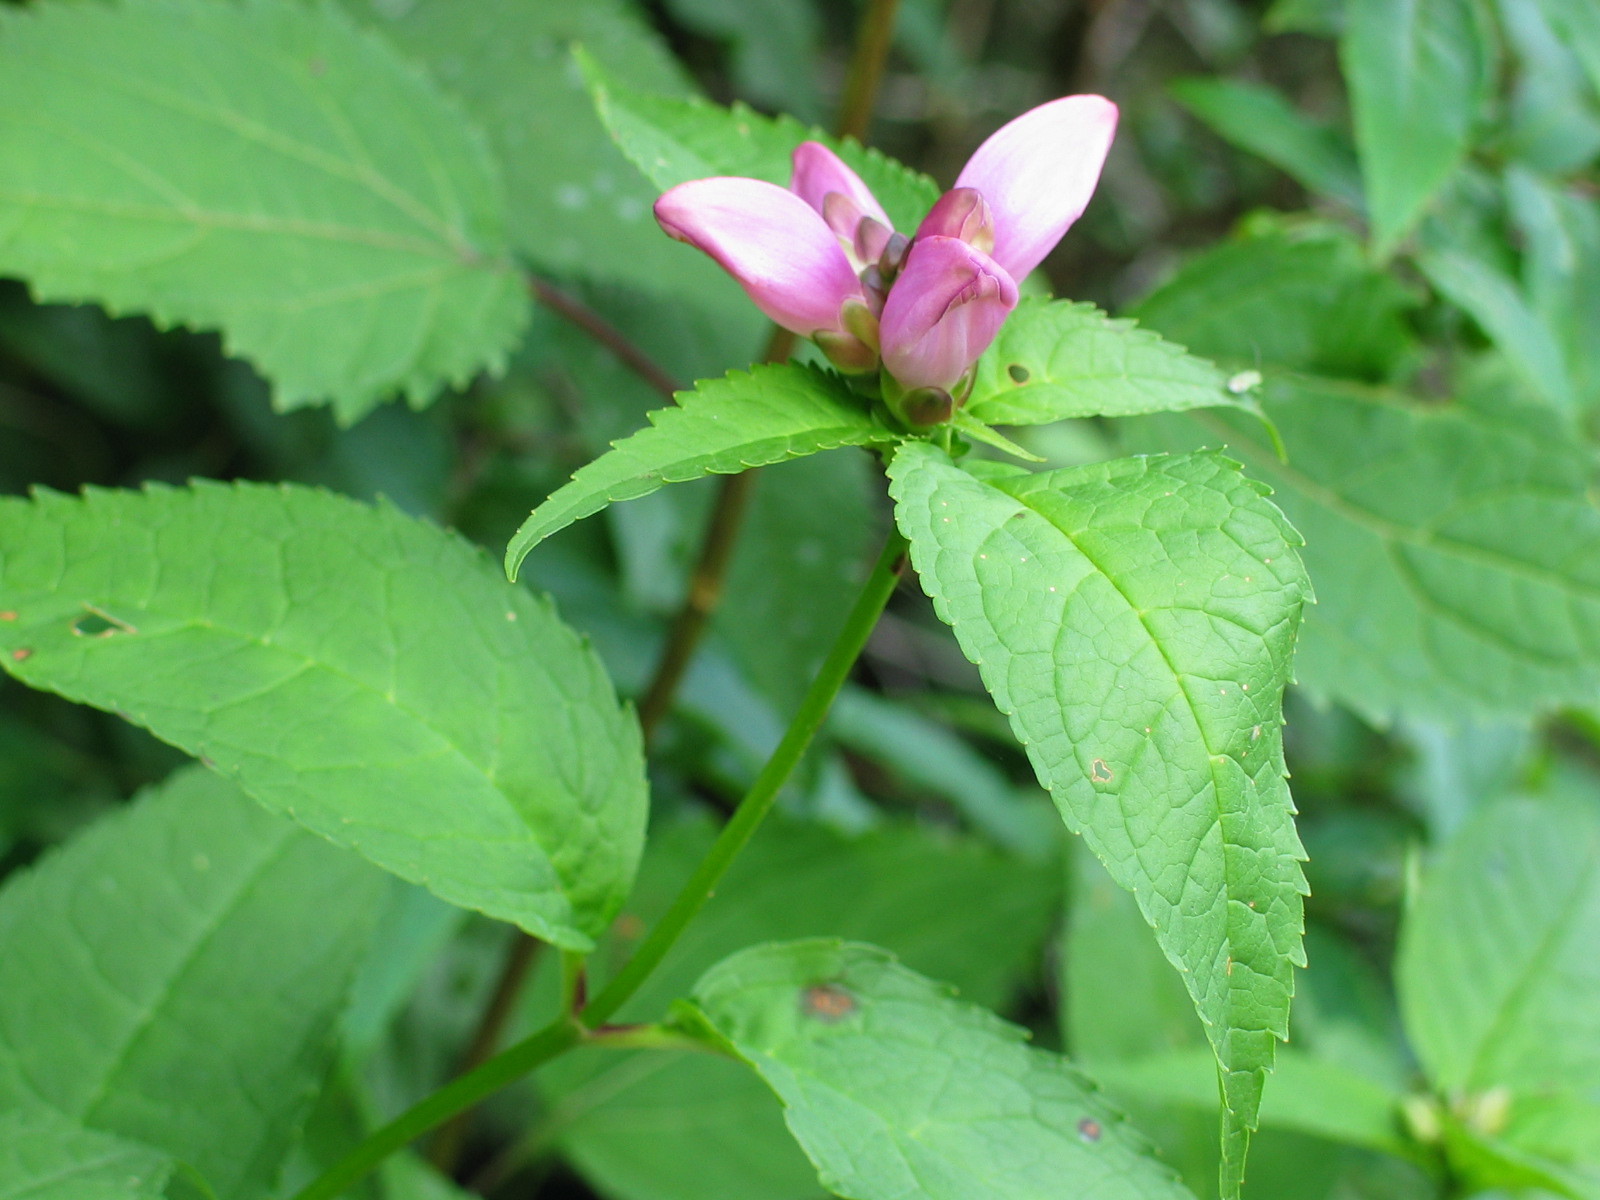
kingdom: Plantae
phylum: Tracheophyta
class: Magnoliopsida
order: Lamiales
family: Plantaginaceae
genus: Chelone
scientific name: Chelone lyonii
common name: Pink turtlehead
